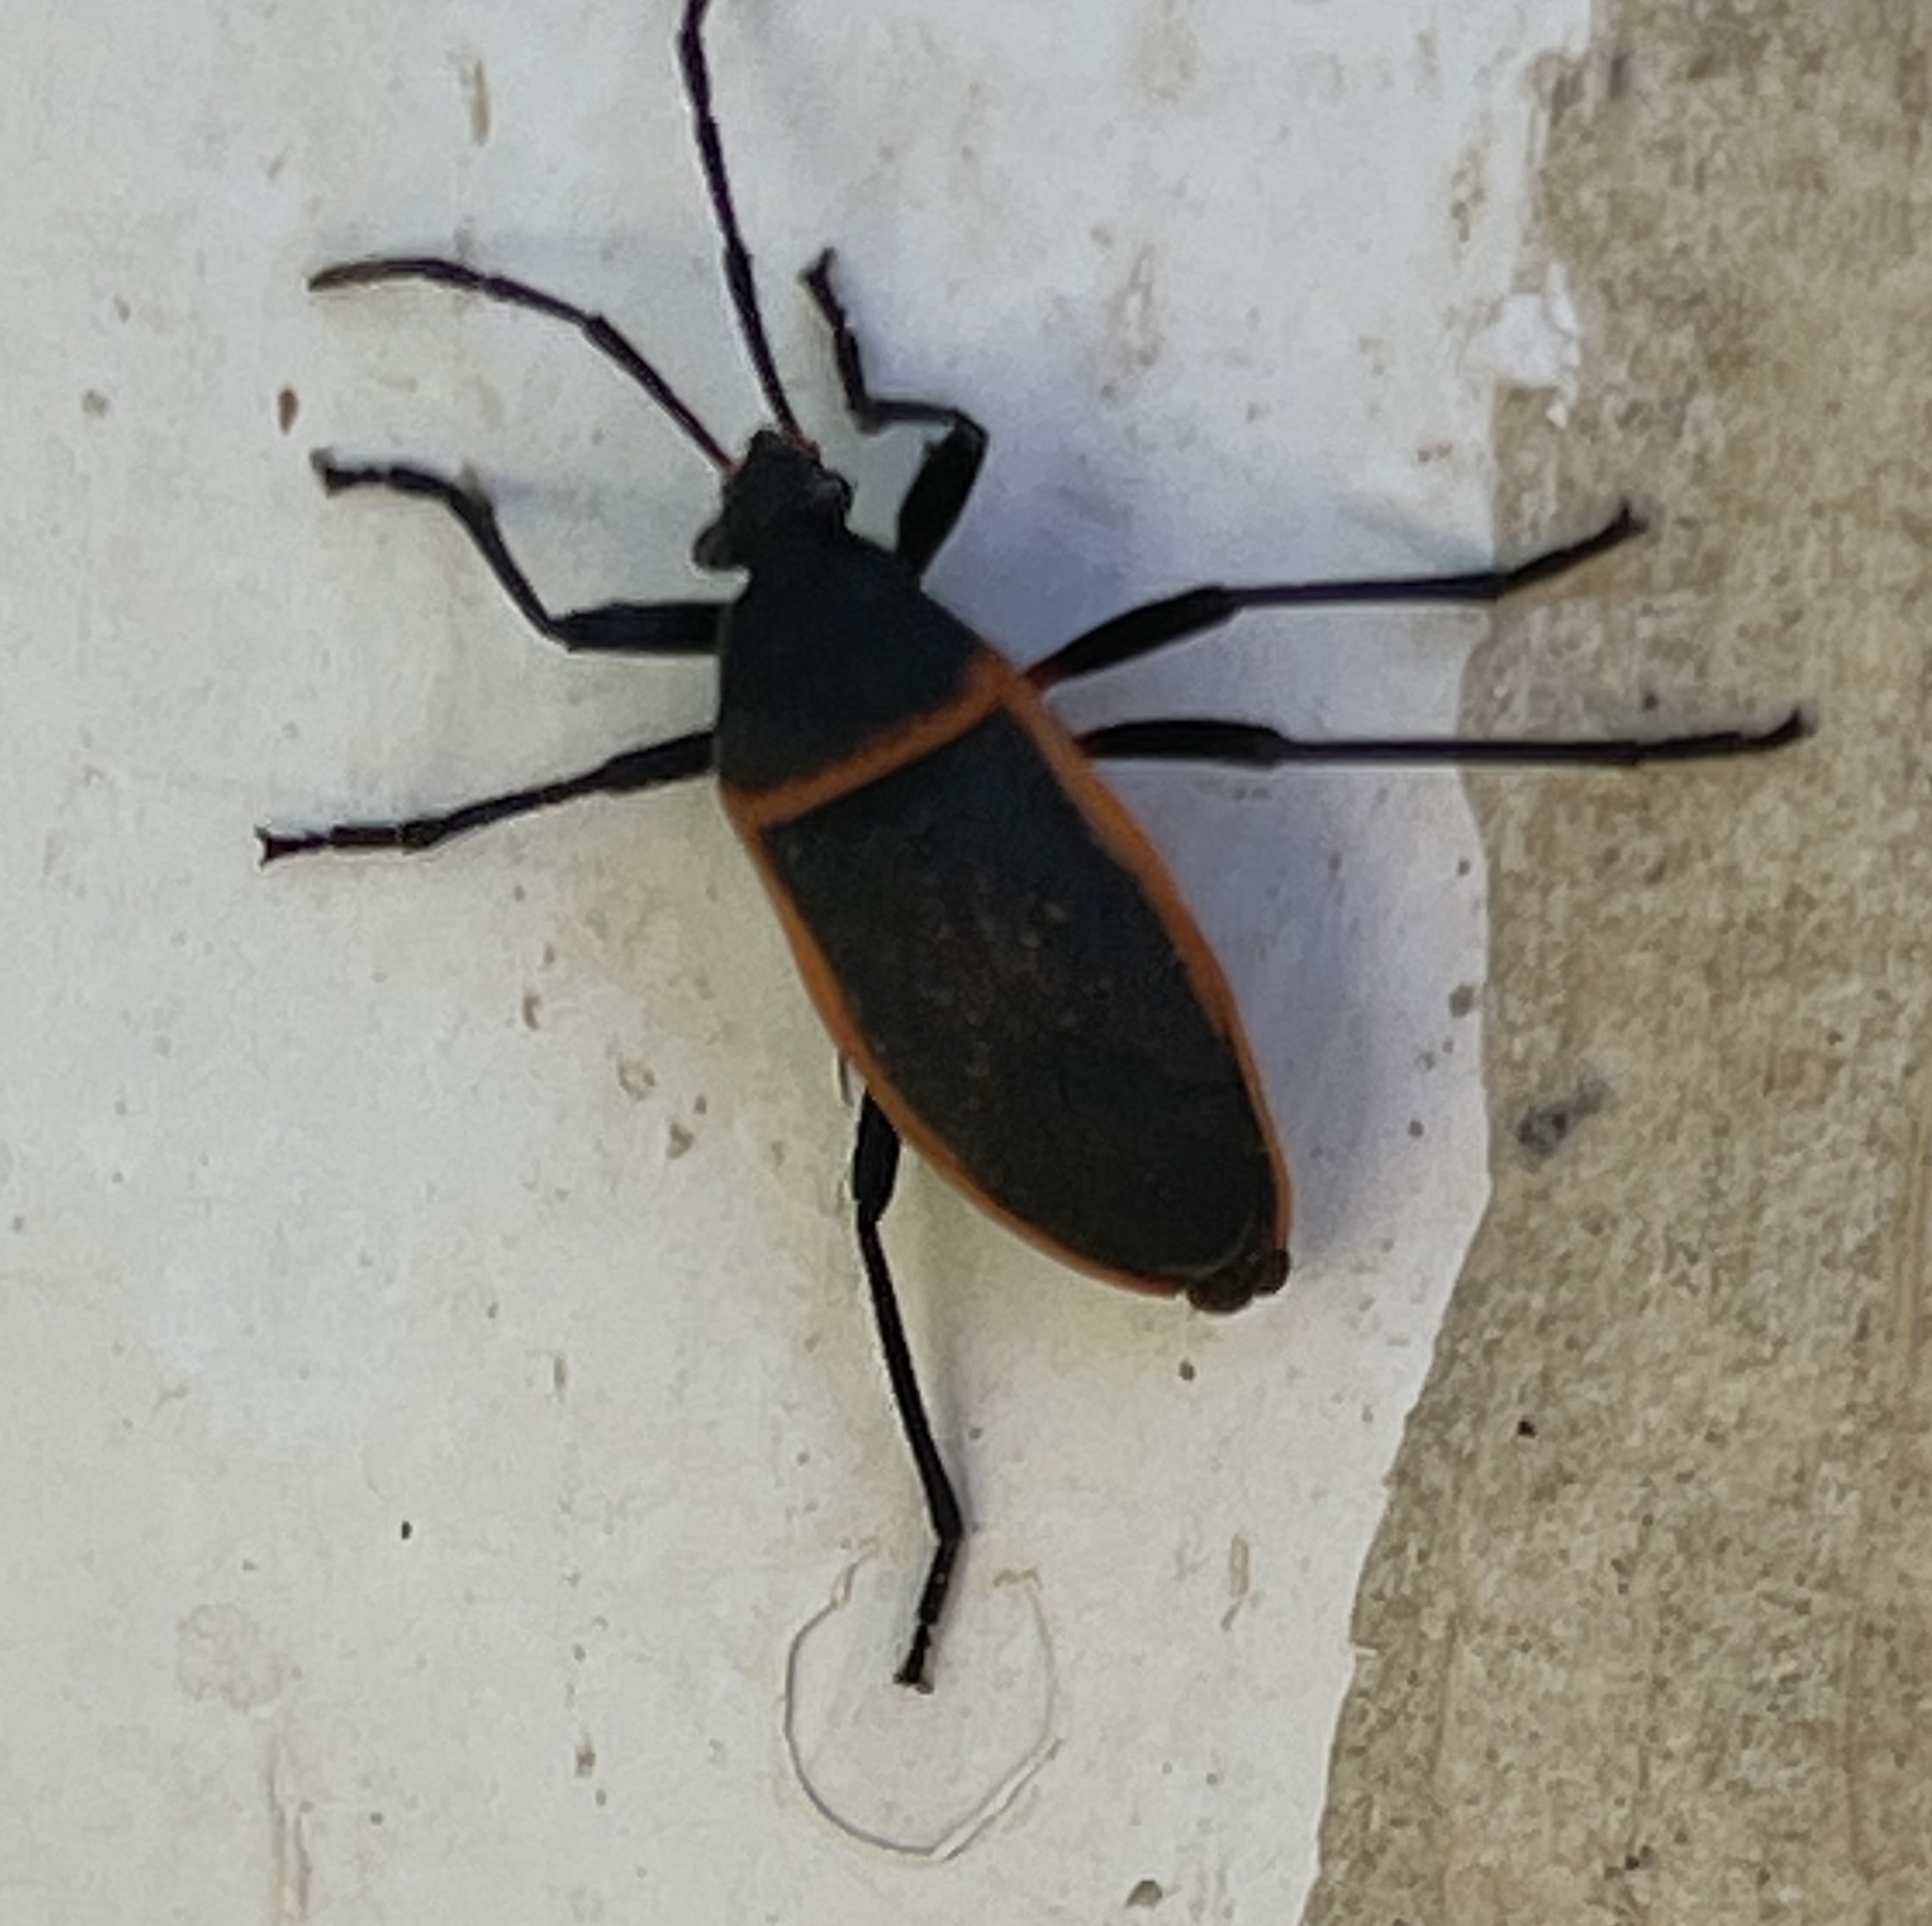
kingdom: Animalia
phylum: Arthropoda
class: Insecta
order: Hemiptera
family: Largidae
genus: Largus
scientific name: Largus californicus
